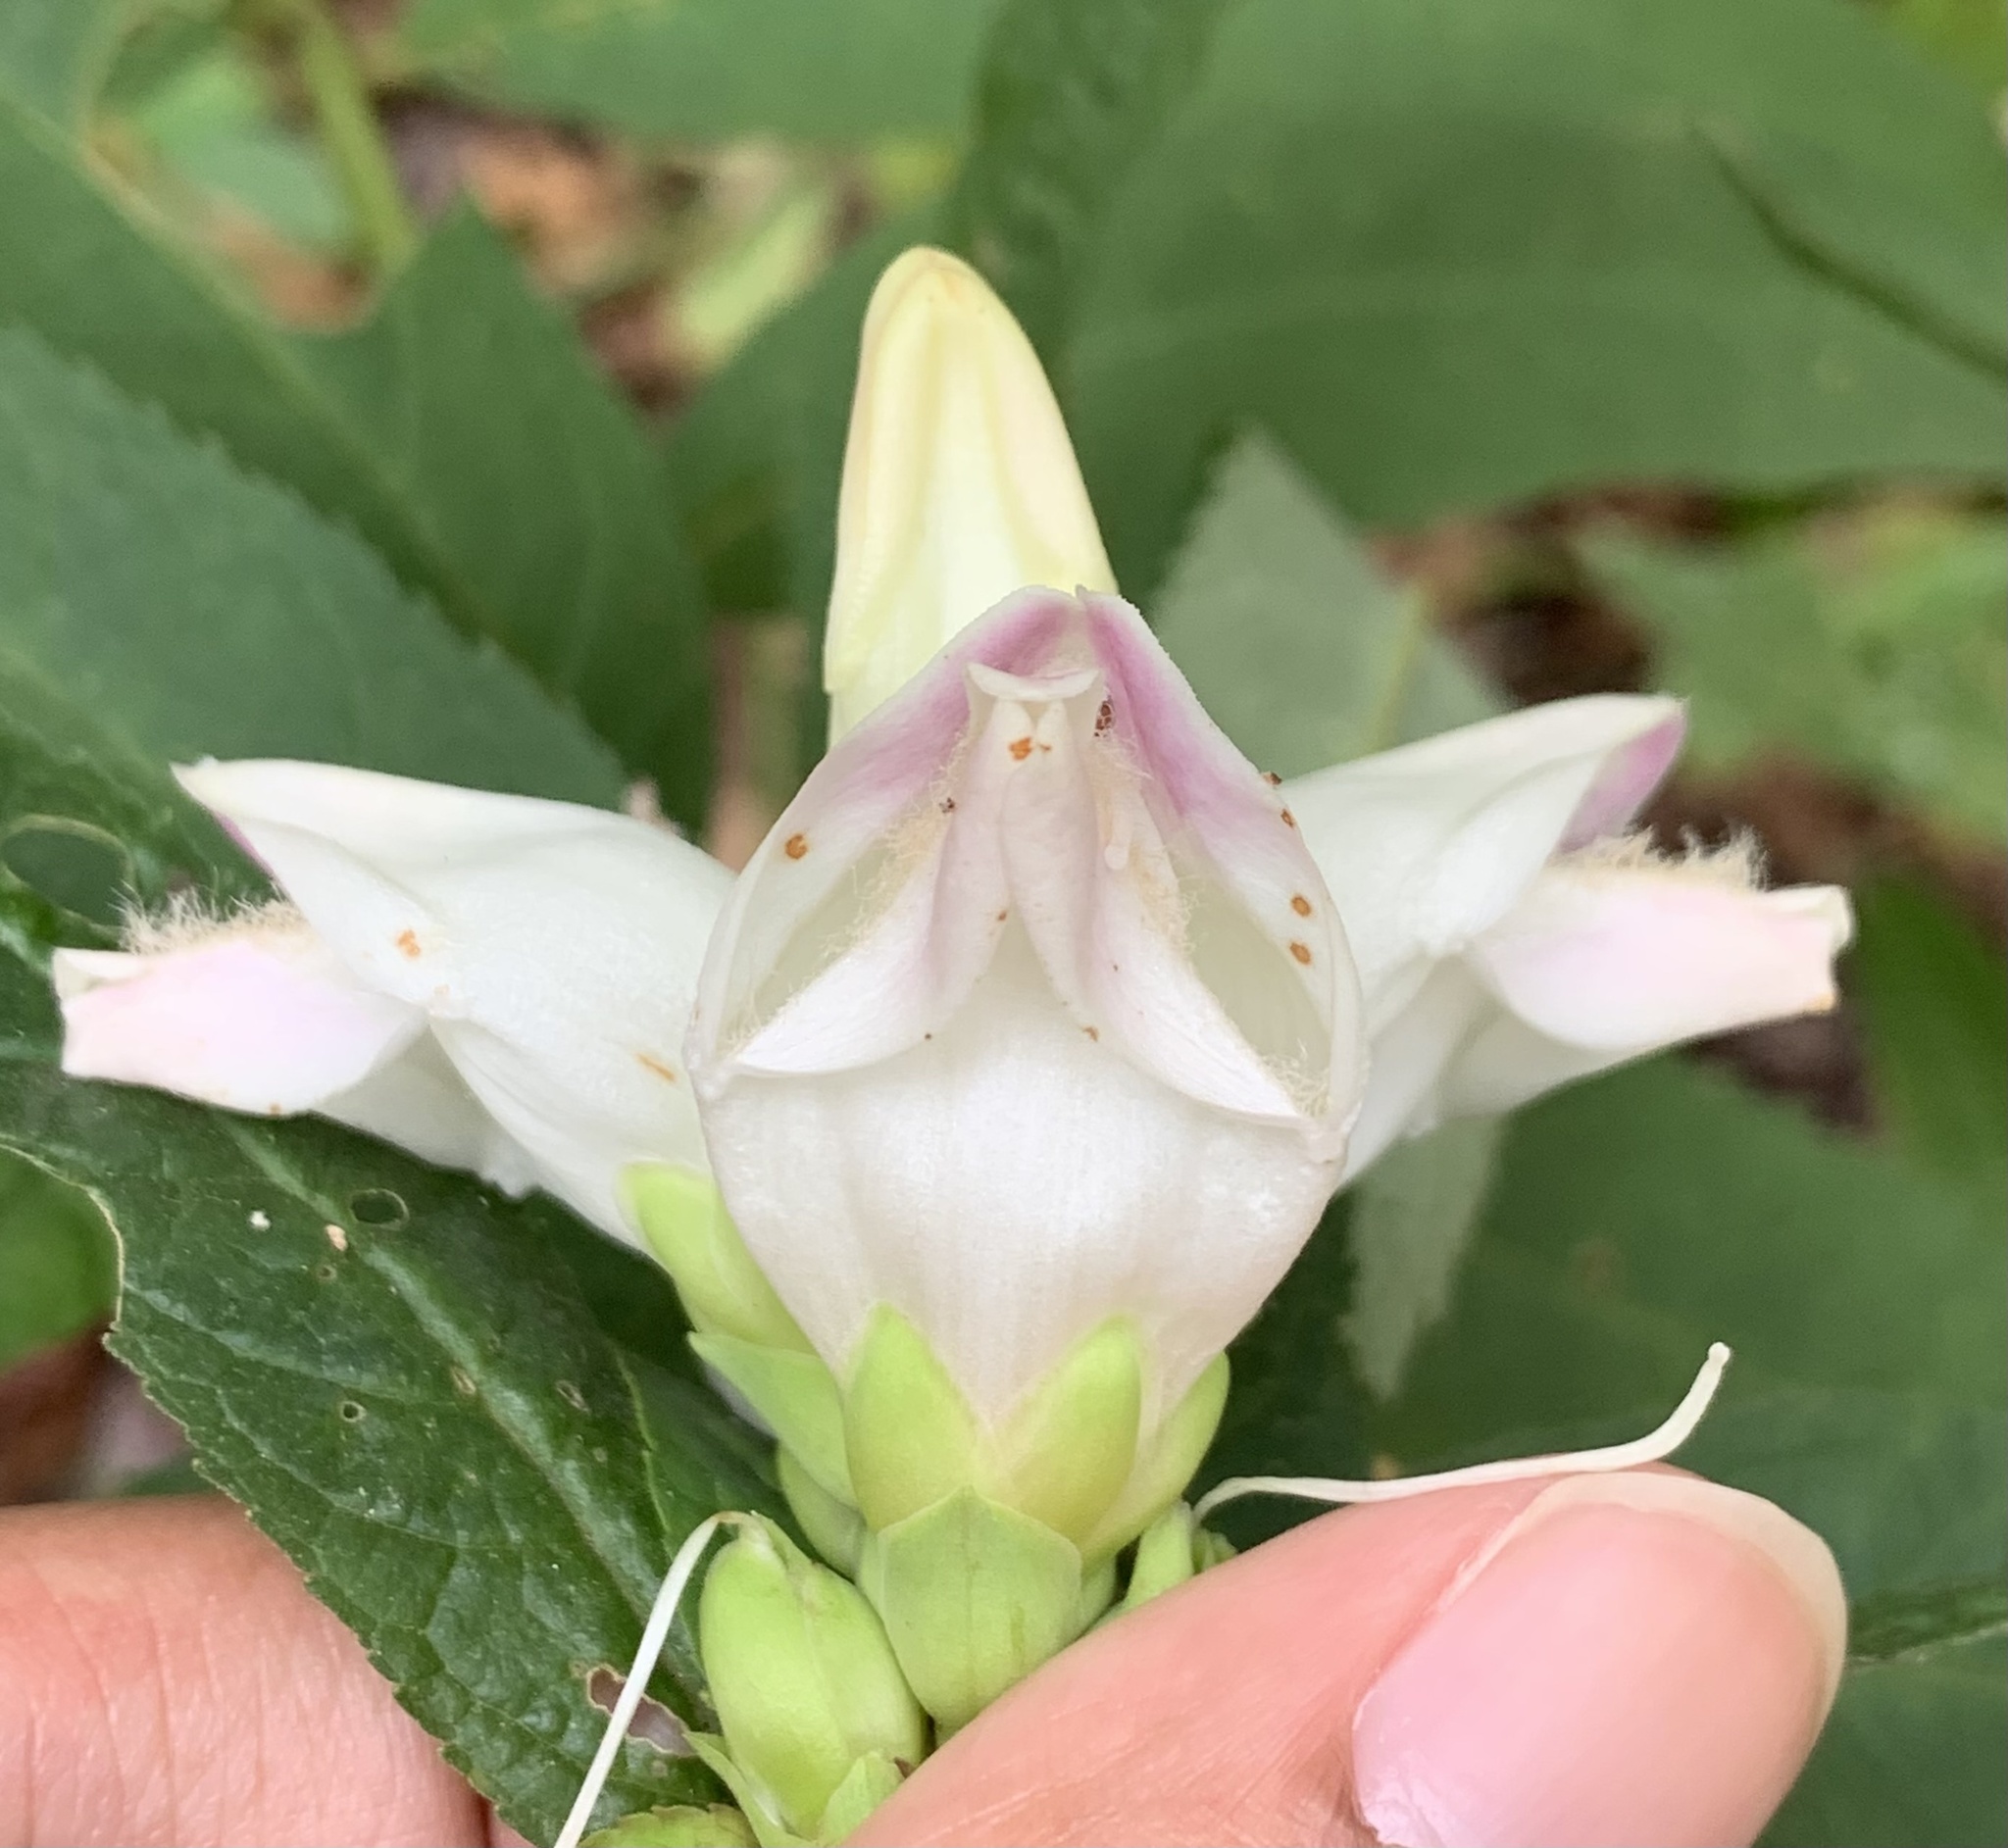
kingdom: Plantae
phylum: Tracheophyta
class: Magnoliopsida
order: Lamiales
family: Plantaginaceae
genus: Chelone
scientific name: Chelone glabra
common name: Snakehead
